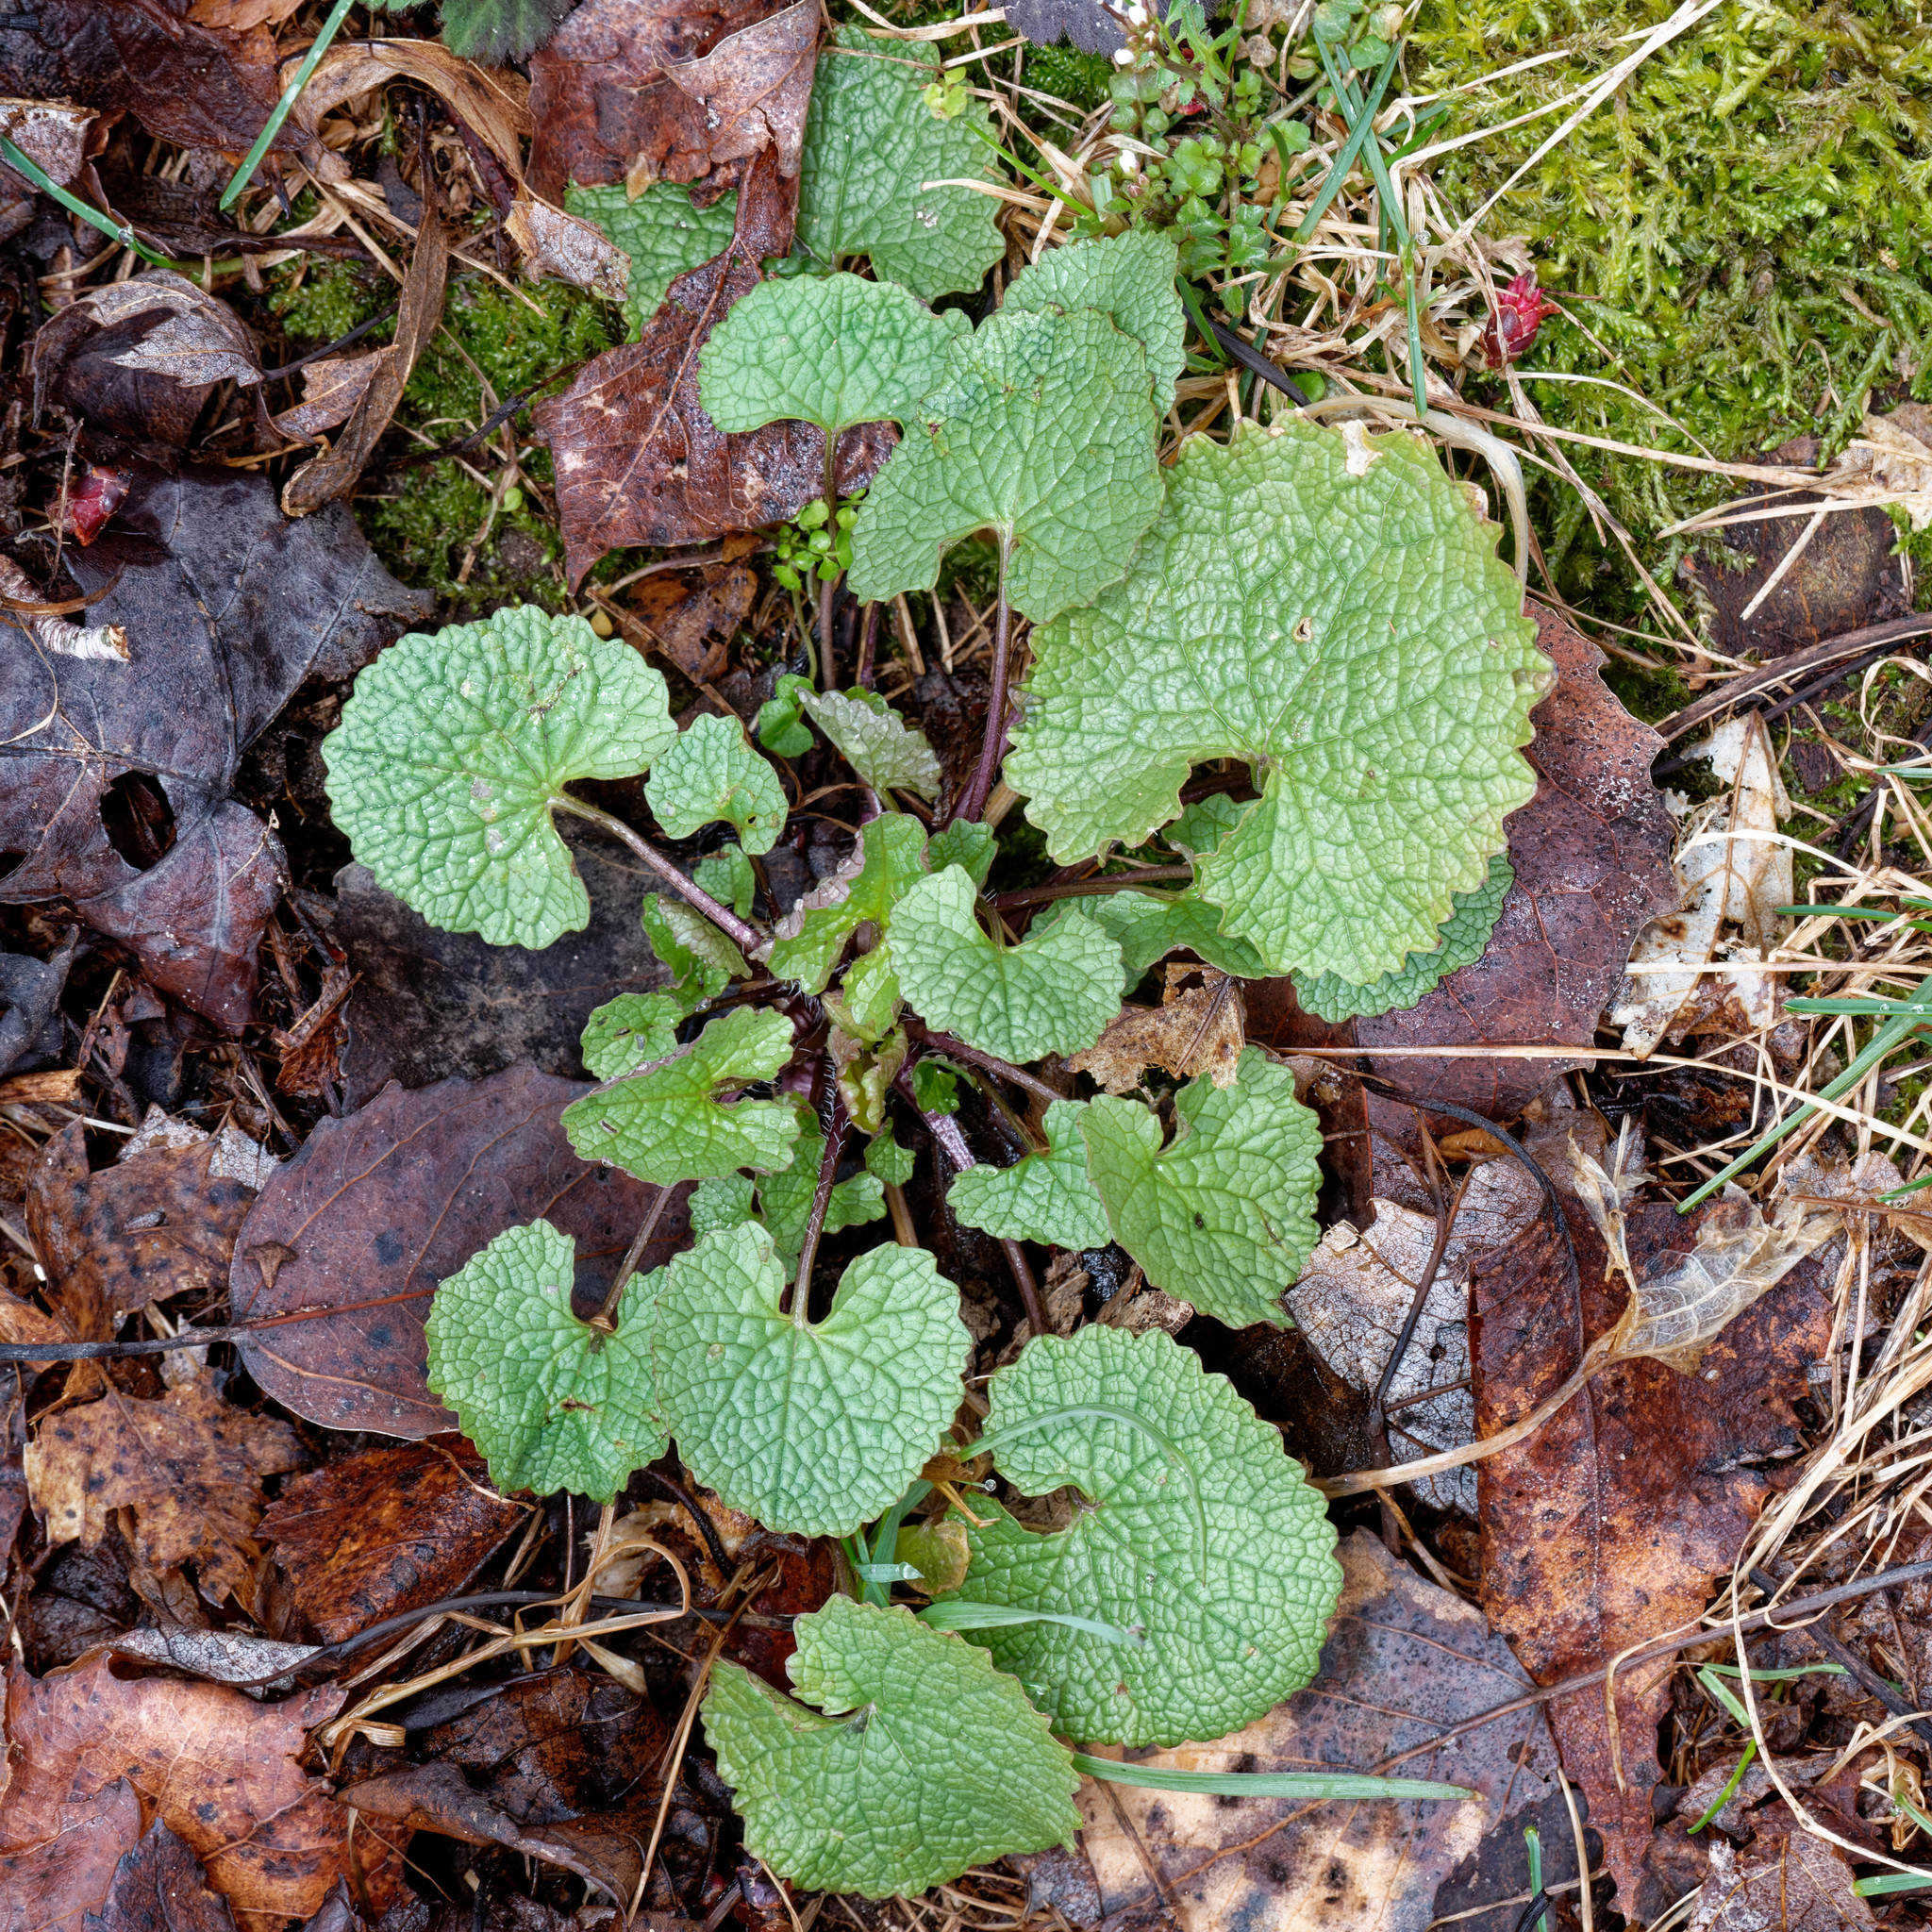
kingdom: Plantae
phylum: Tracheophyta
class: Magnoliopsida
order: Brassicales
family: Brassicaceae
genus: Alliaria
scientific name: Alliaria petiolata
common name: Garlic mustard
